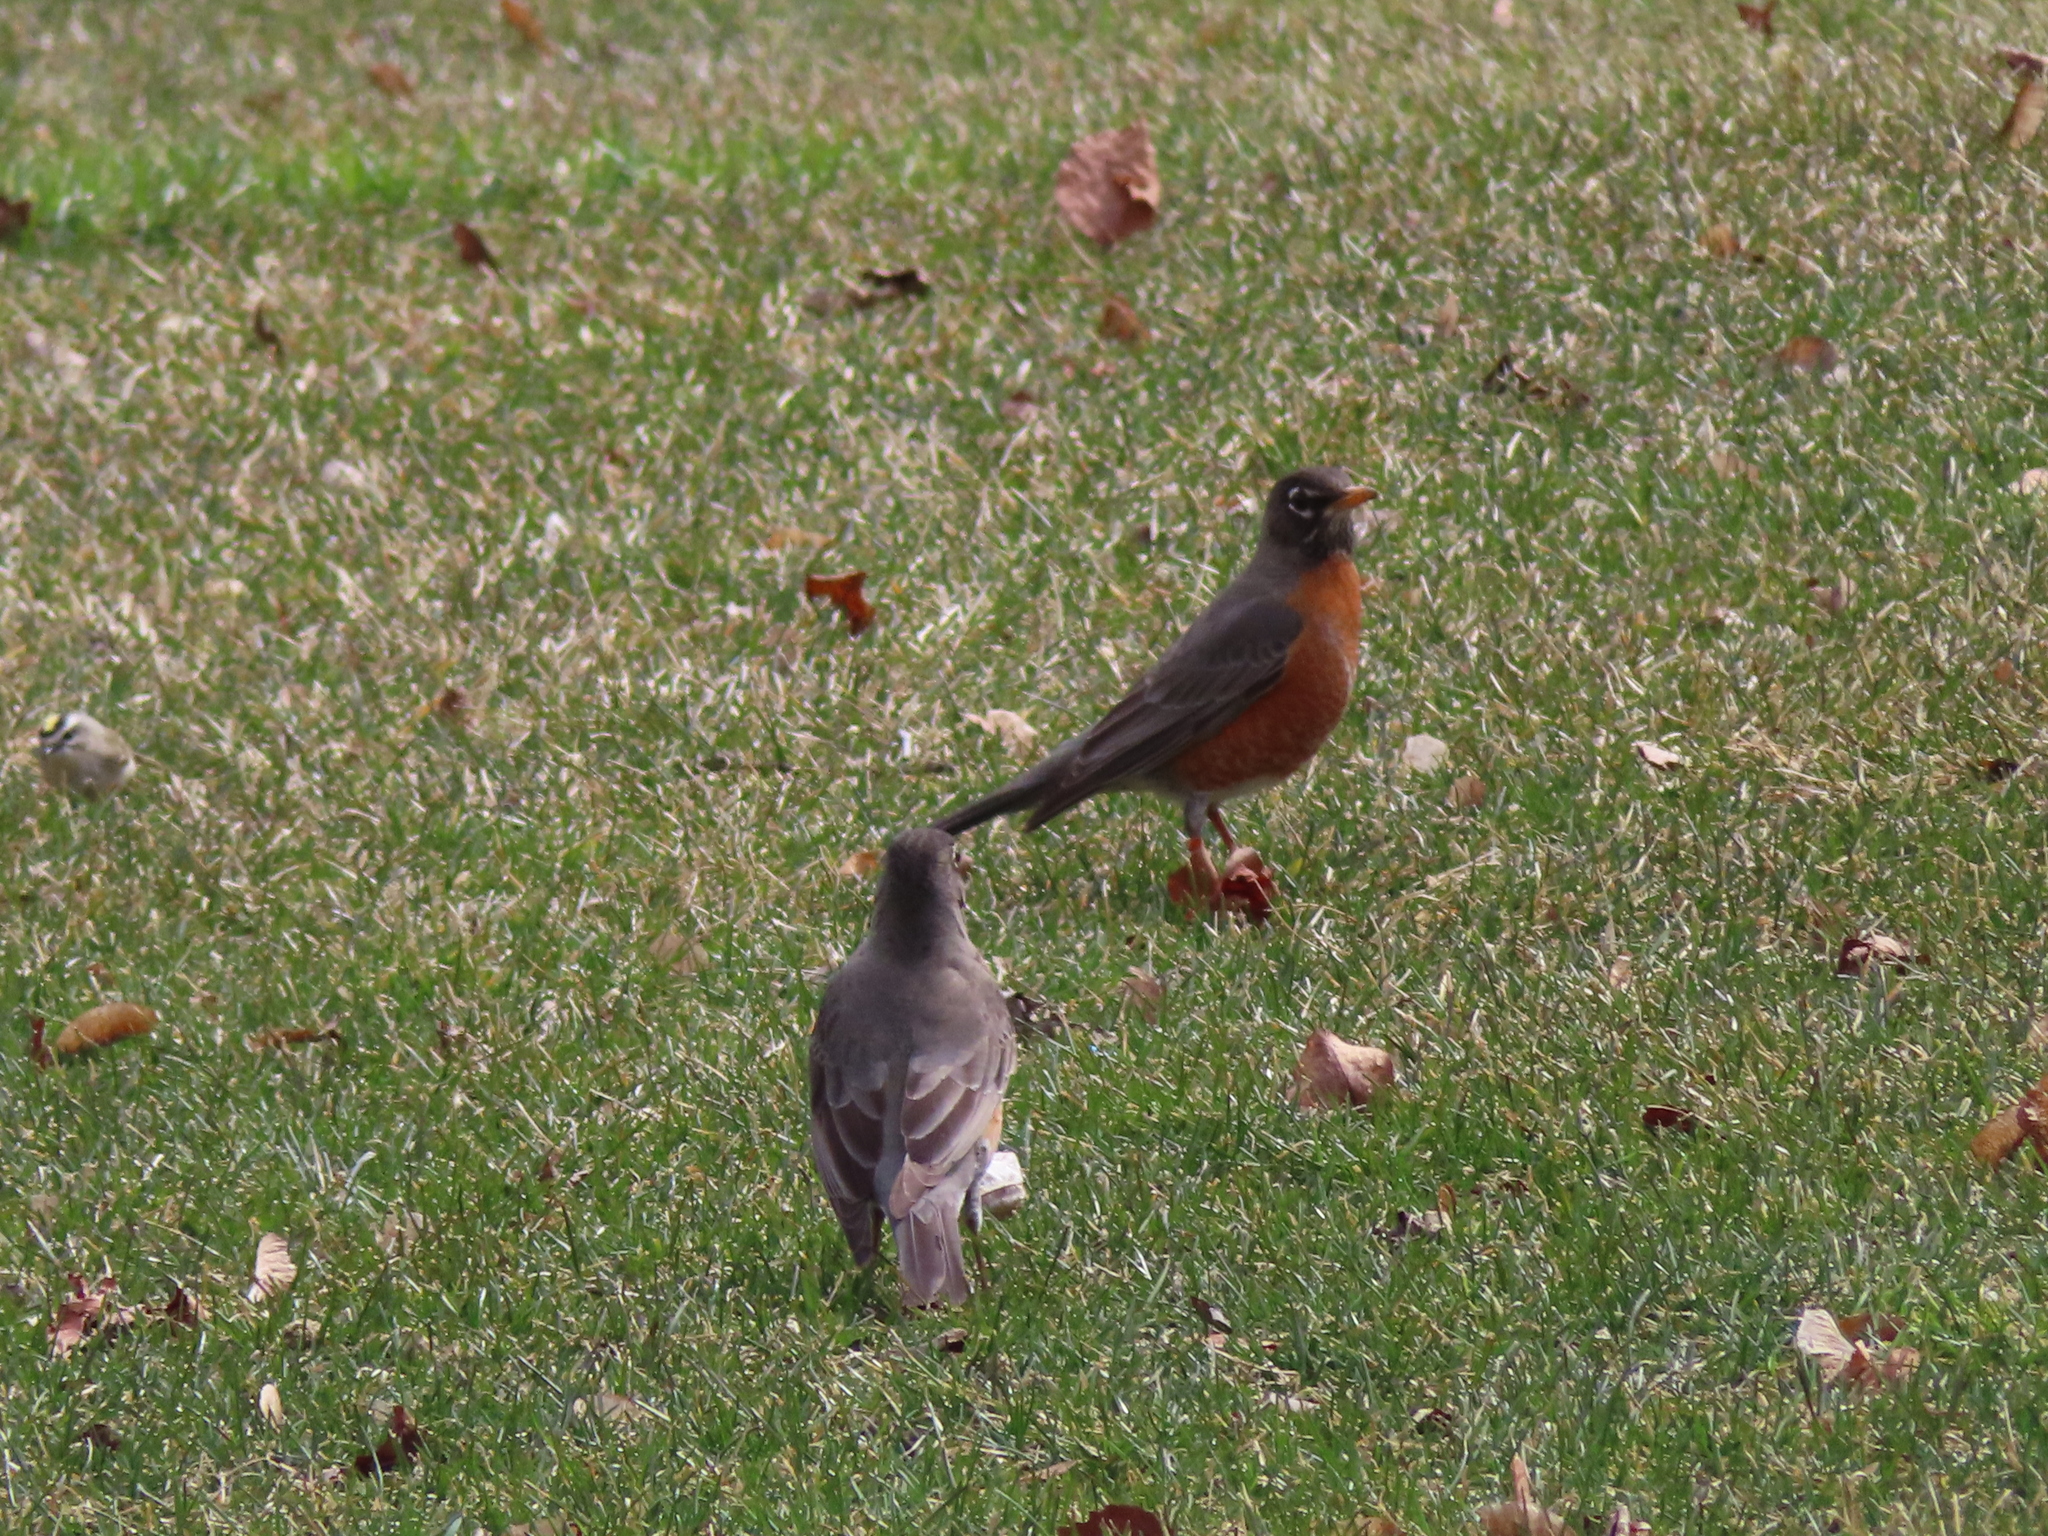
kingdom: Animalia
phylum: Chordata
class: Aves
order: Passeriformes
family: Turdidae
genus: Turdus
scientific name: Turdus migratorius
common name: American robin
